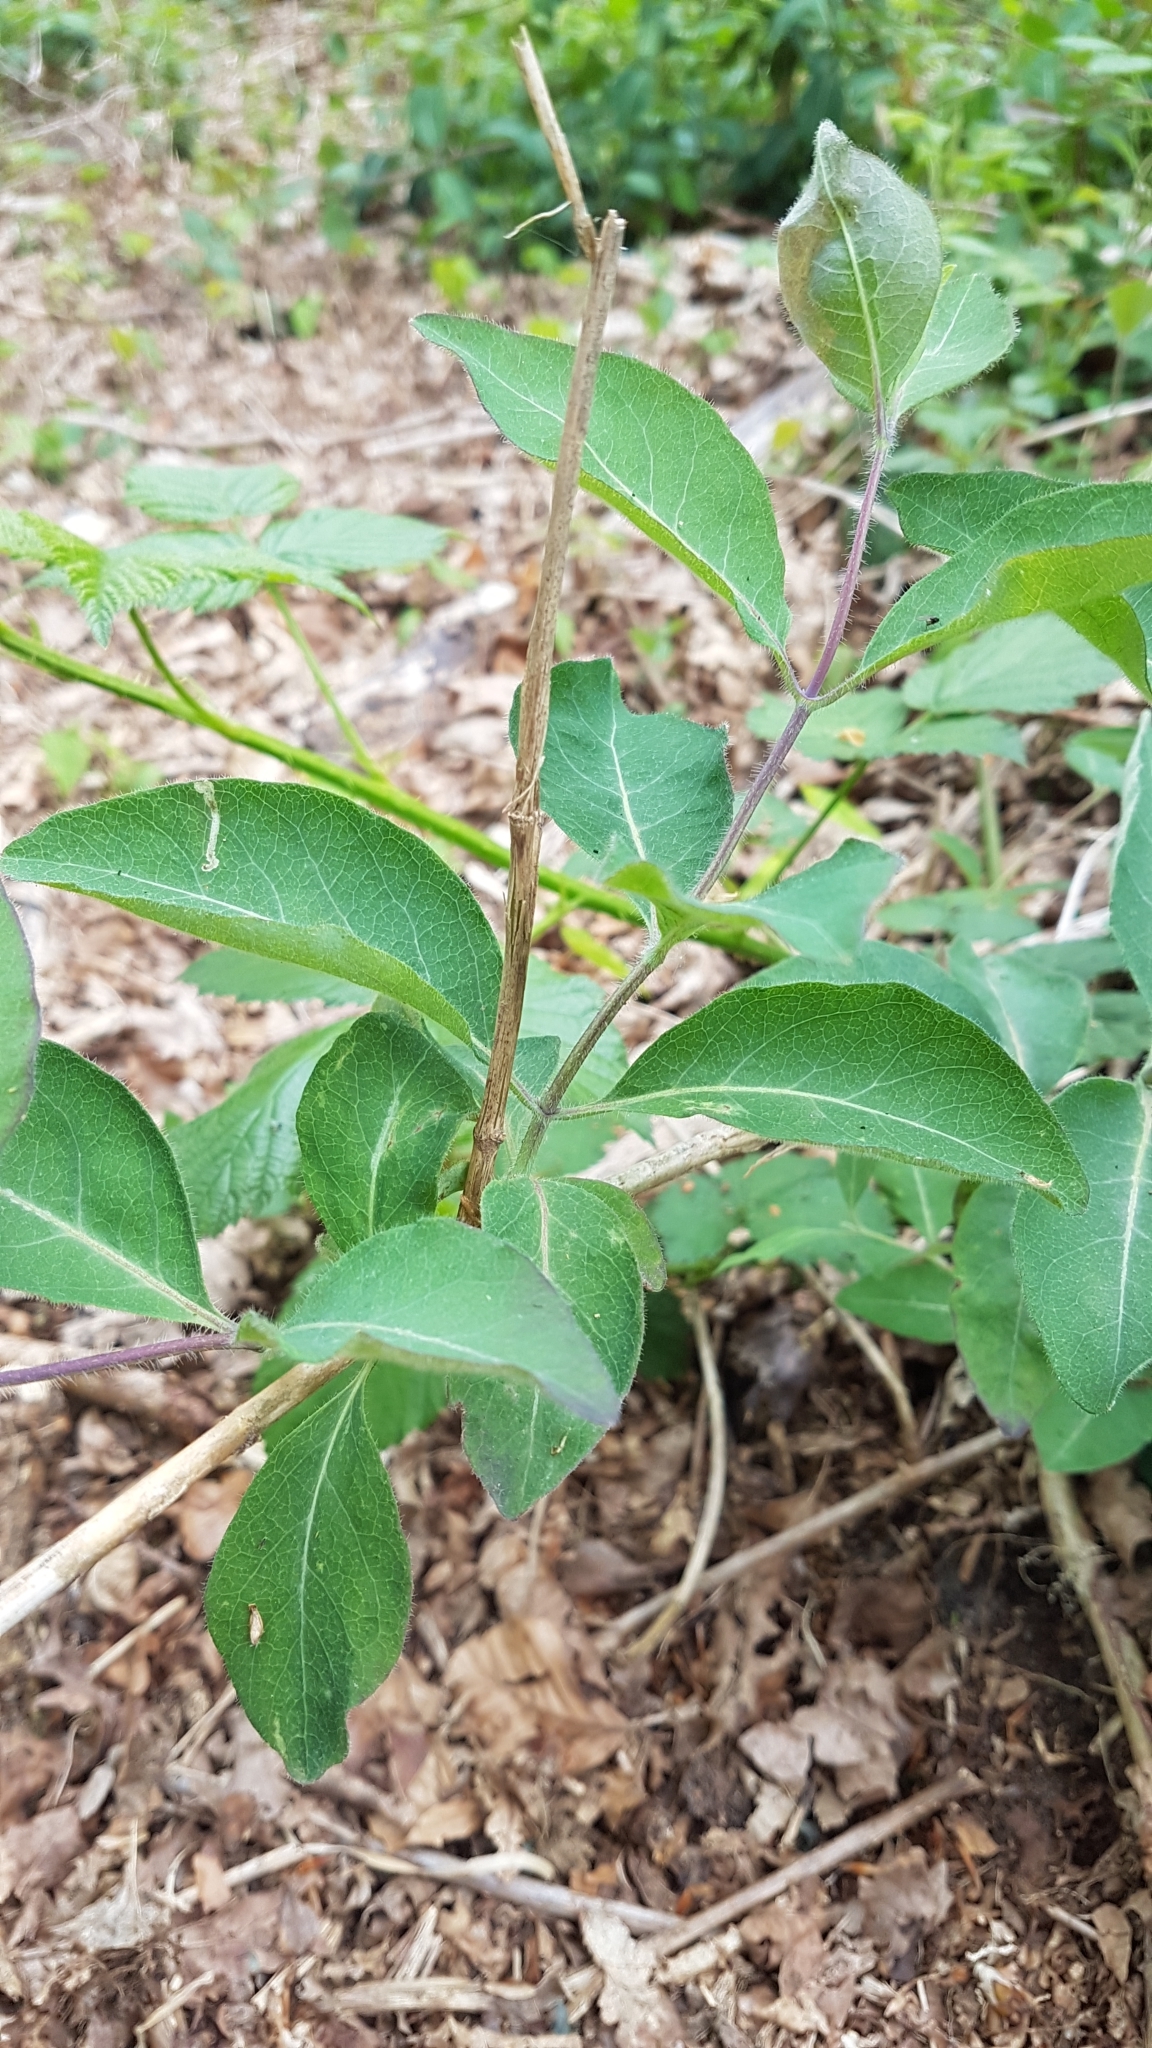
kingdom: Plantae
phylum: Tracheophyta
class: Magnoliopsida
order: Dipsacales
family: Caprifoliaceae
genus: Lonicera
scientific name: Lonicera periclymenum
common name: European honeysuckle
